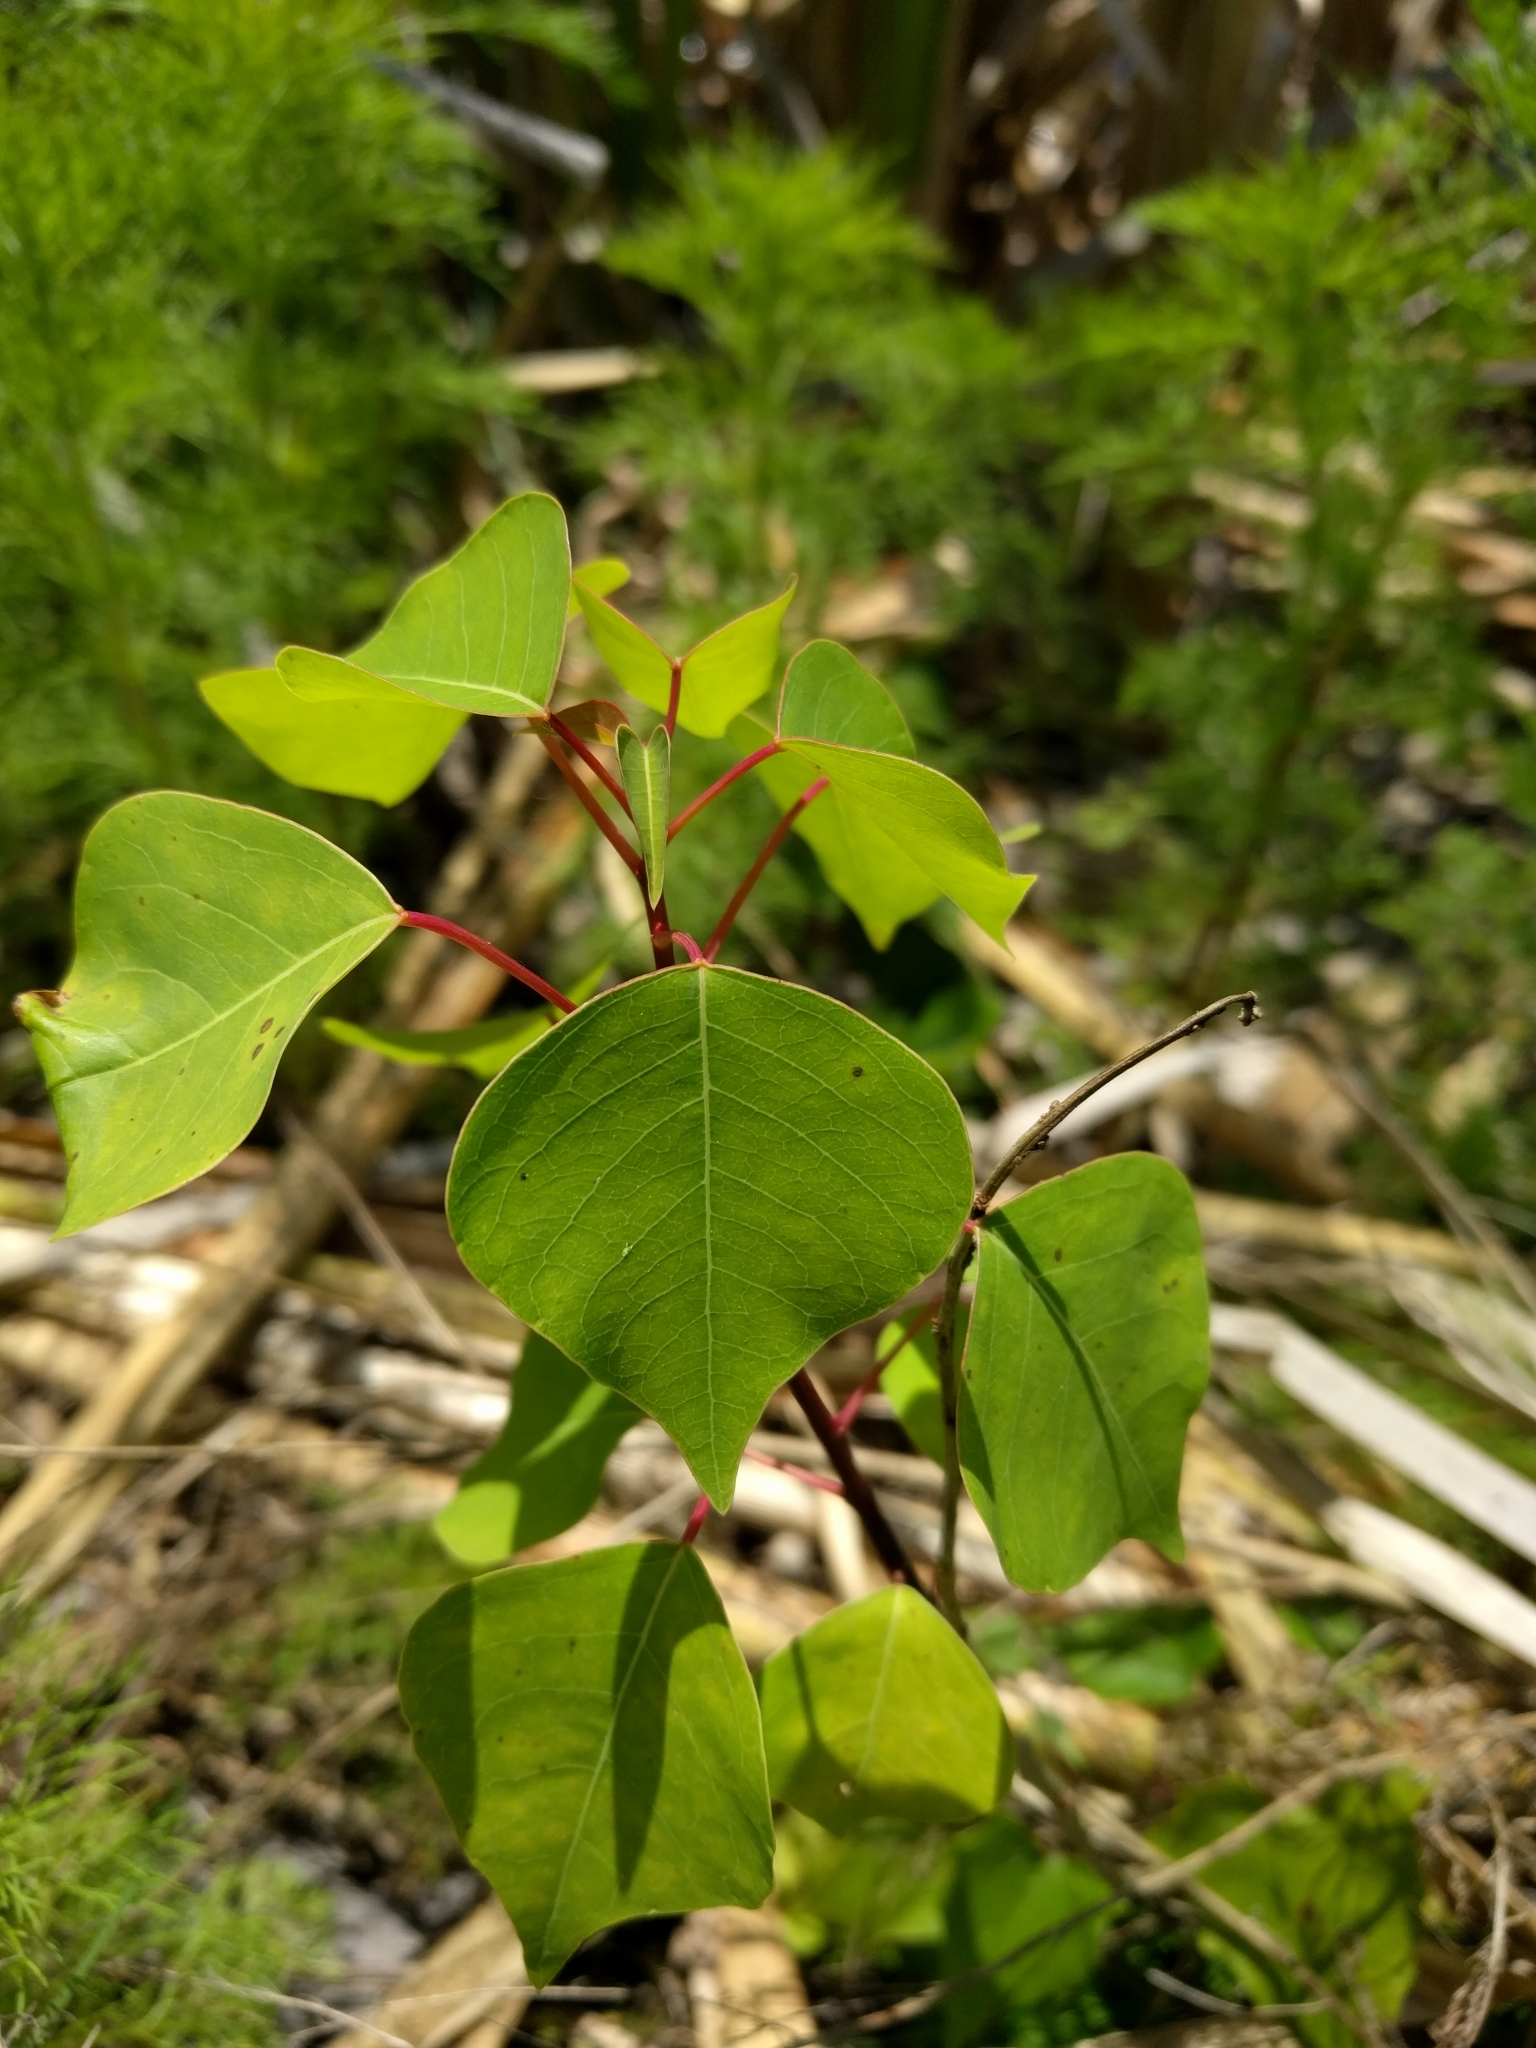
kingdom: Plantae
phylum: Tracheophyta
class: Magnoliopsida
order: Malpighiales
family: Euphorbiaceae
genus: Triadica
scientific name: Triadica sebifera
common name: Chinese tallow
